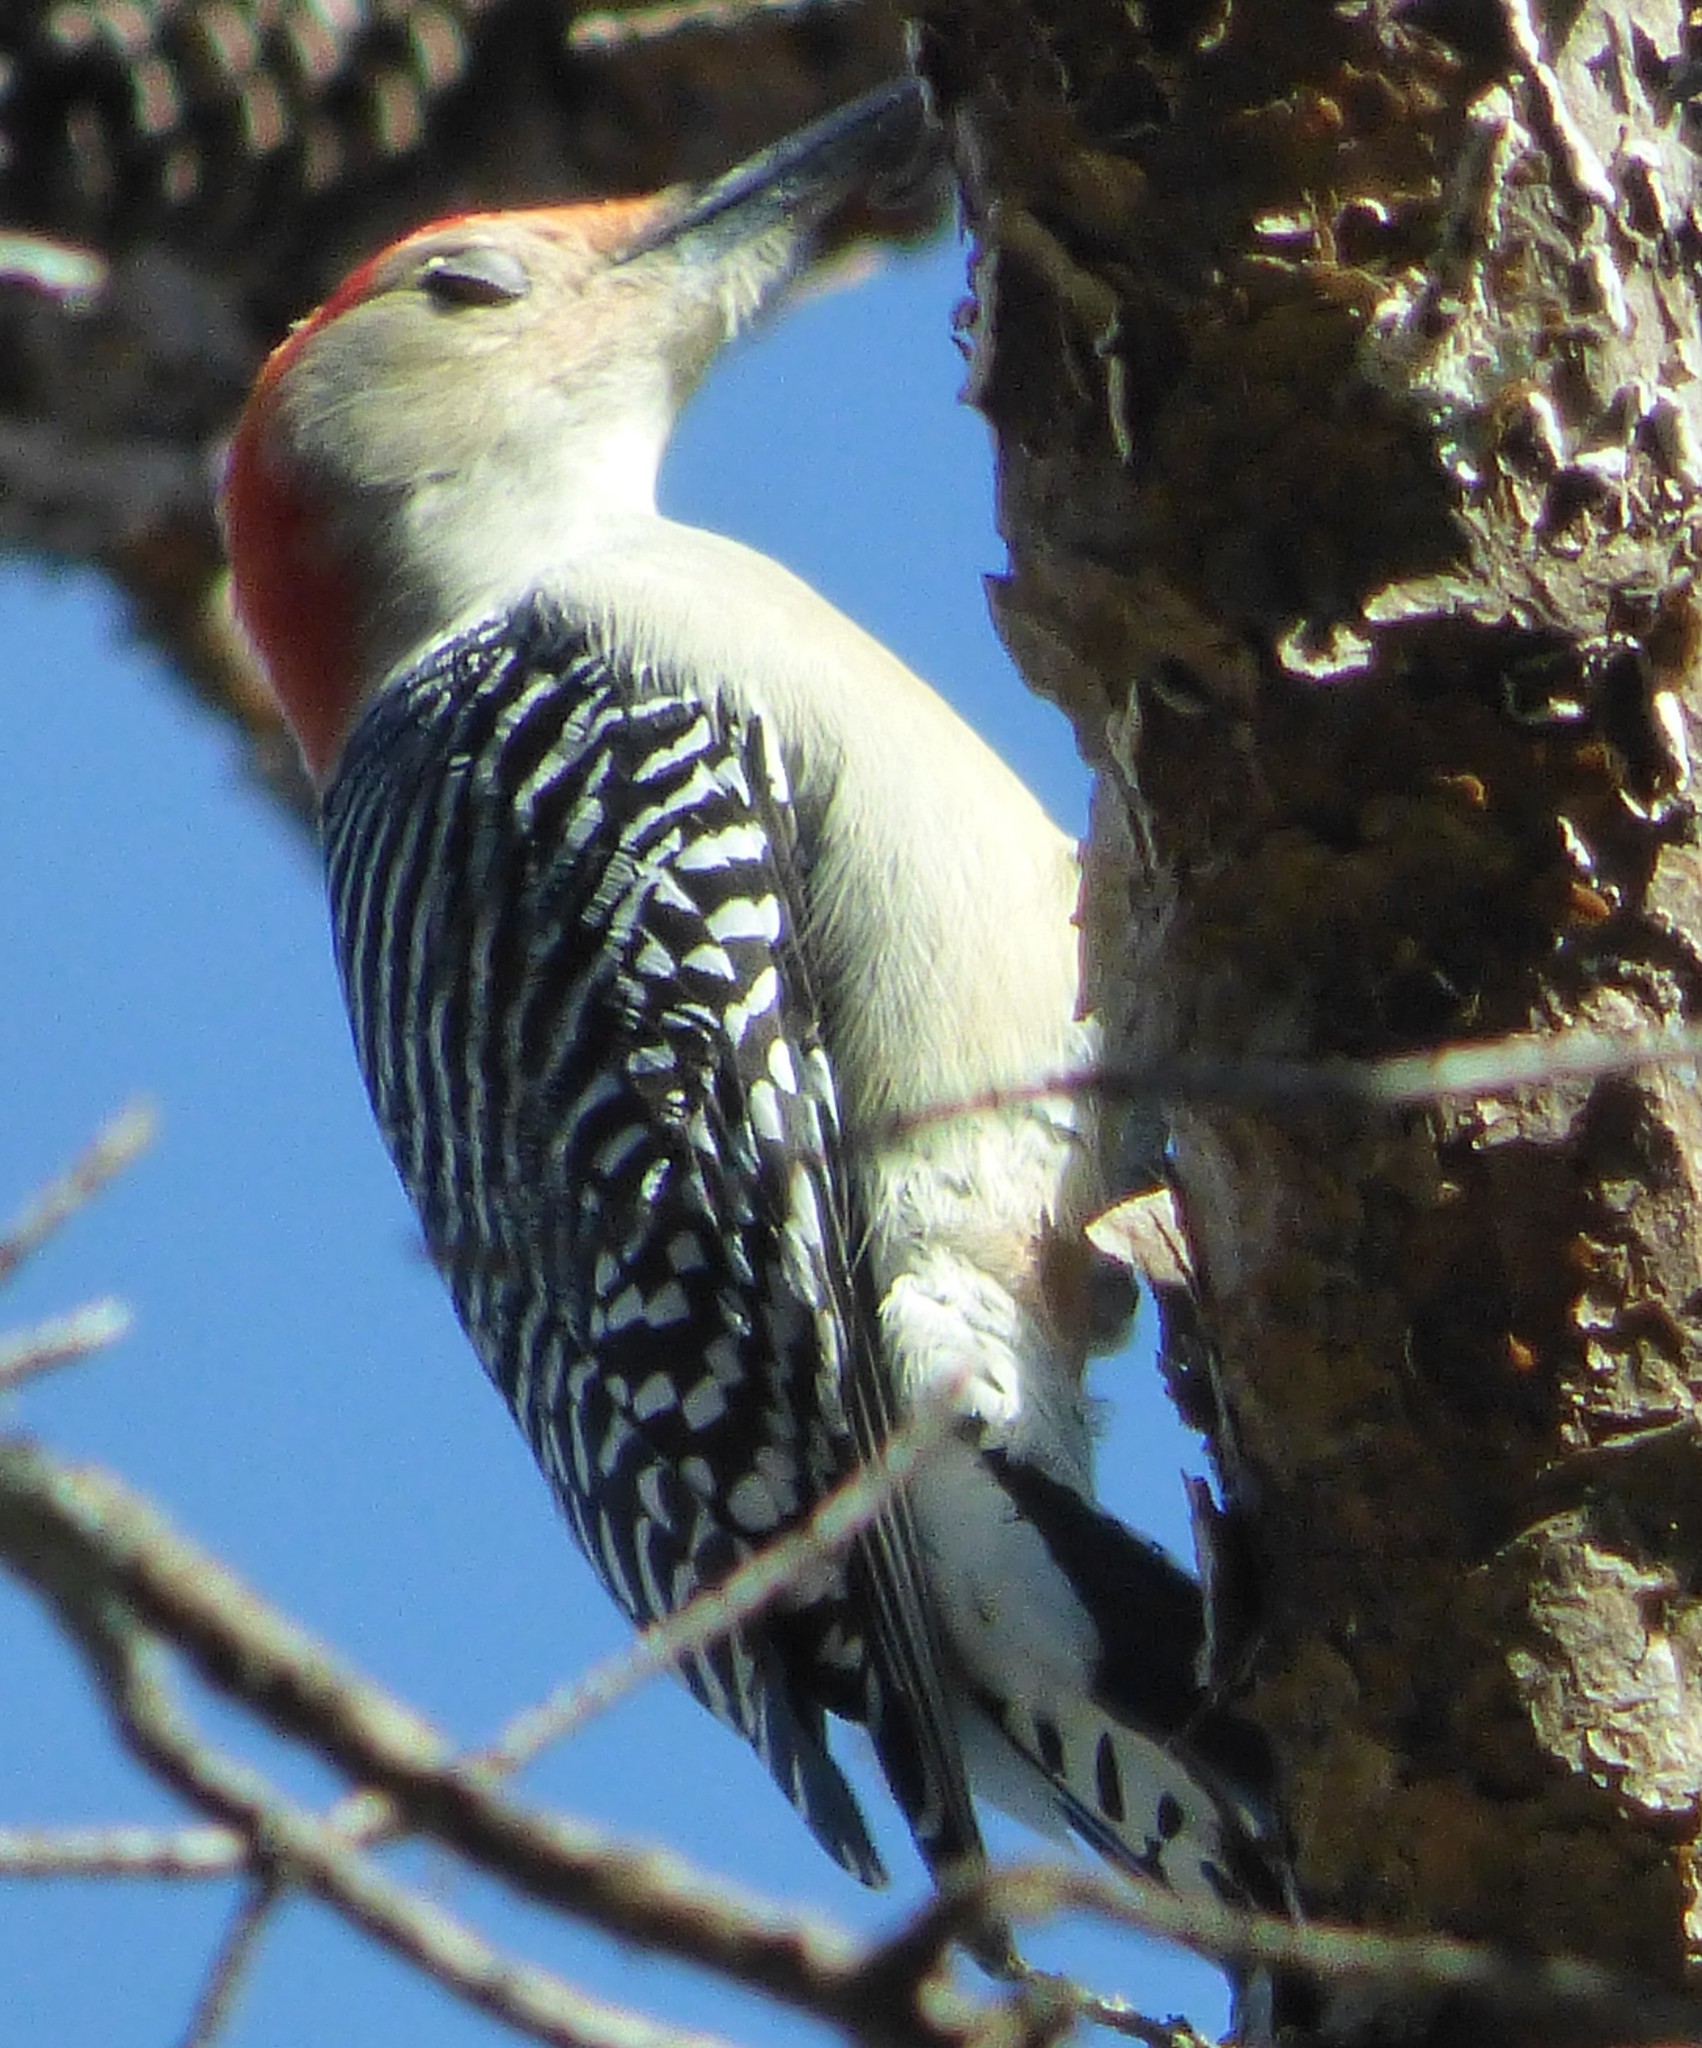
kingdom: Animalia
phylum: Chordata
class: Aves
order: Piciformes
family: Picidae
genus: Melanerpes
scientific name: Melanerpes carolinus
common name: Red-bellied woodpecker
